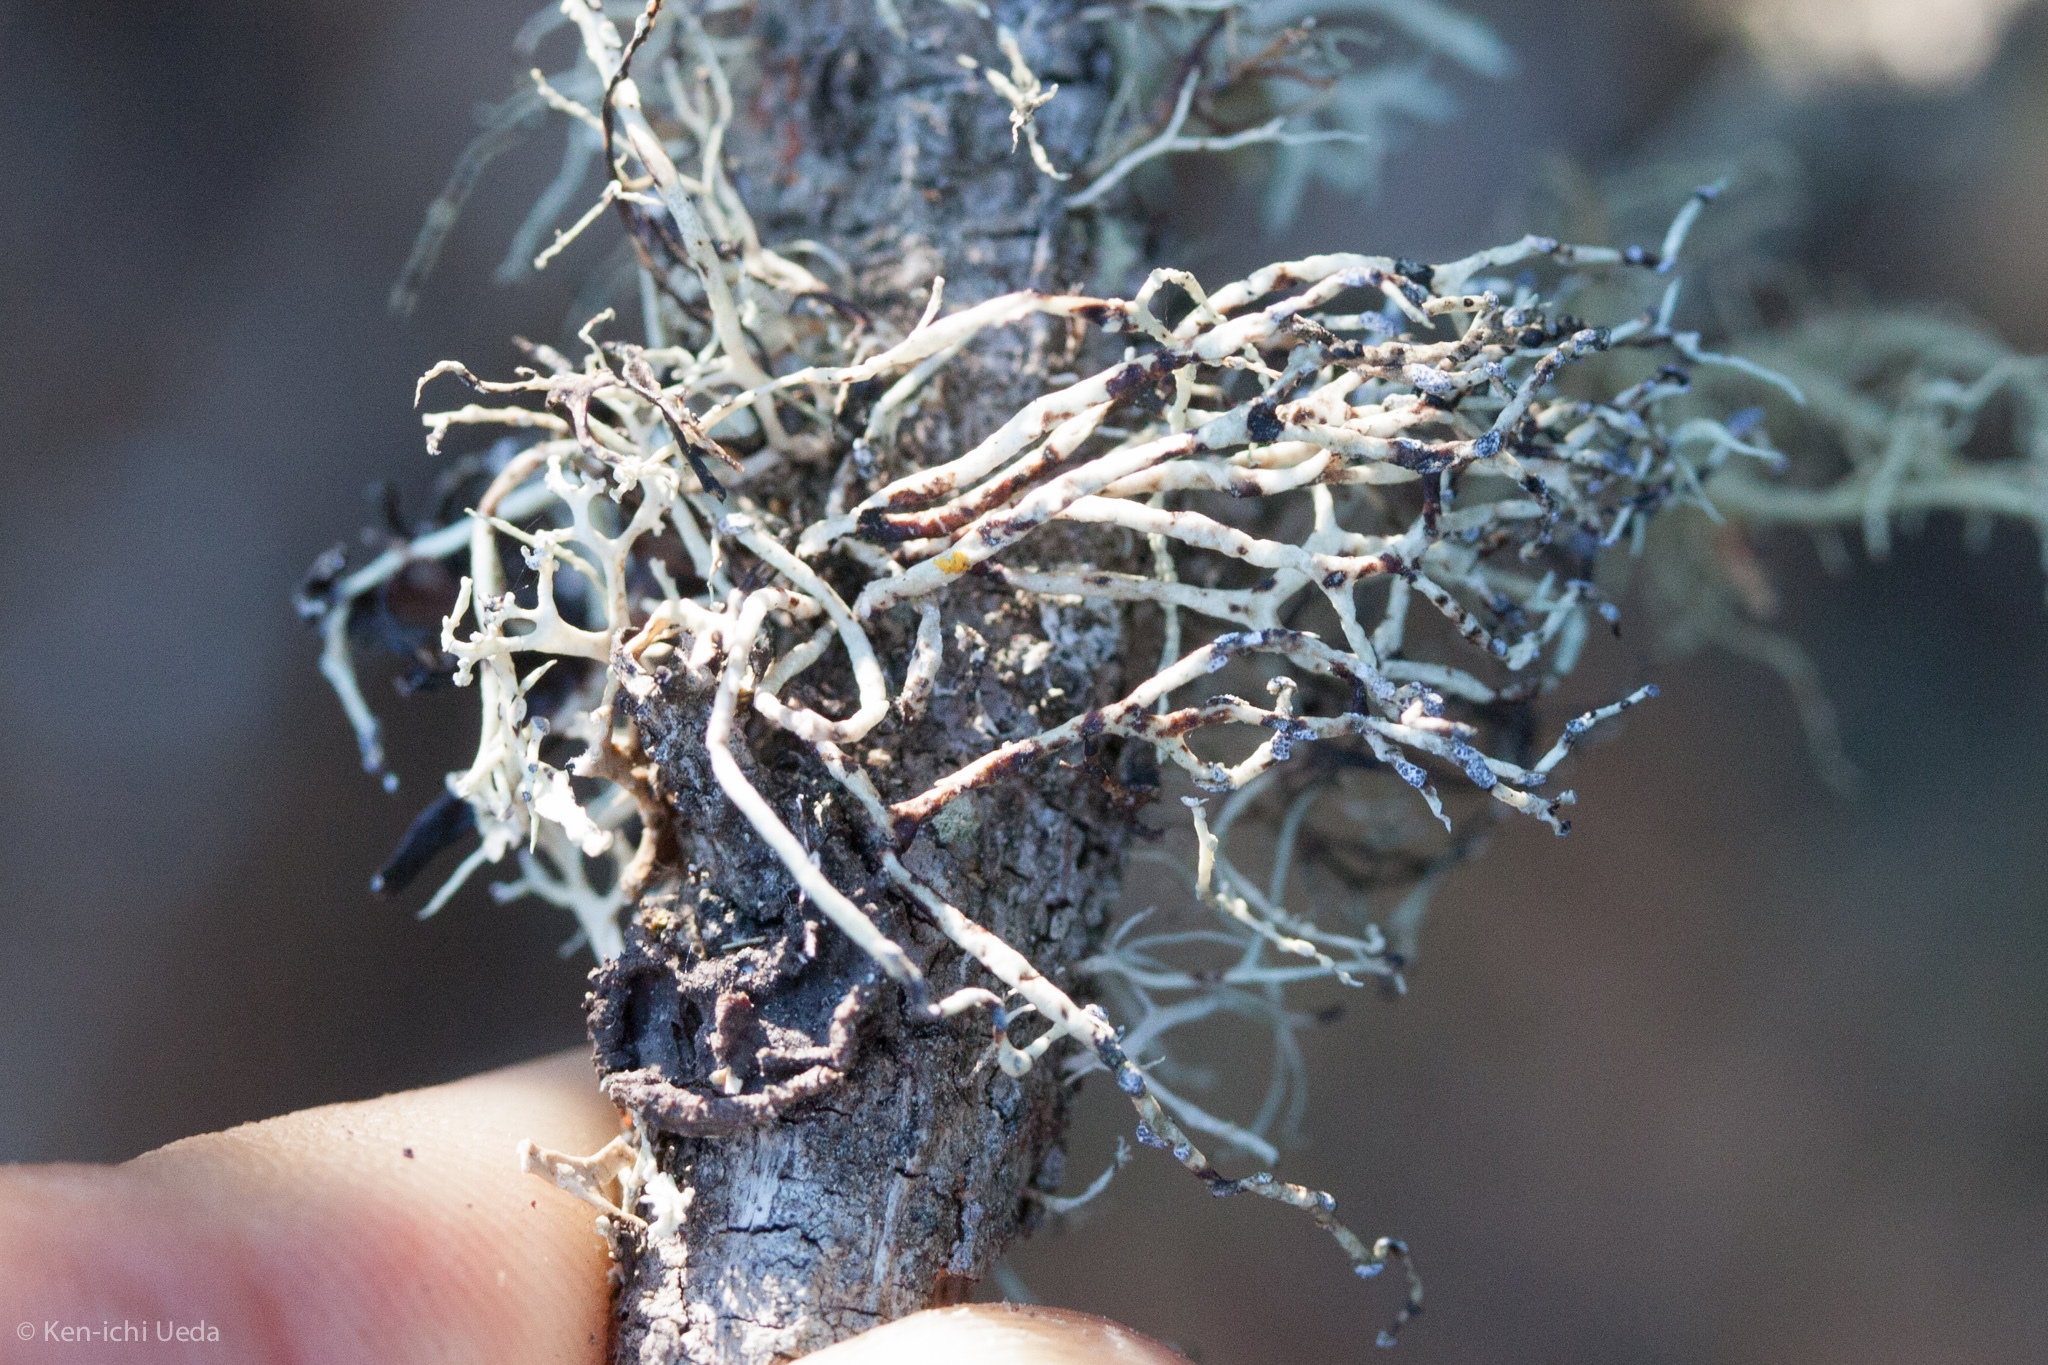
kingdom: Fungi
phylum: Ascomycota
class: Lecanoromycetes
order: Lecanorales
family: Ramalinaceae
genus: Niebla
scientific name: Niebla cephalota
